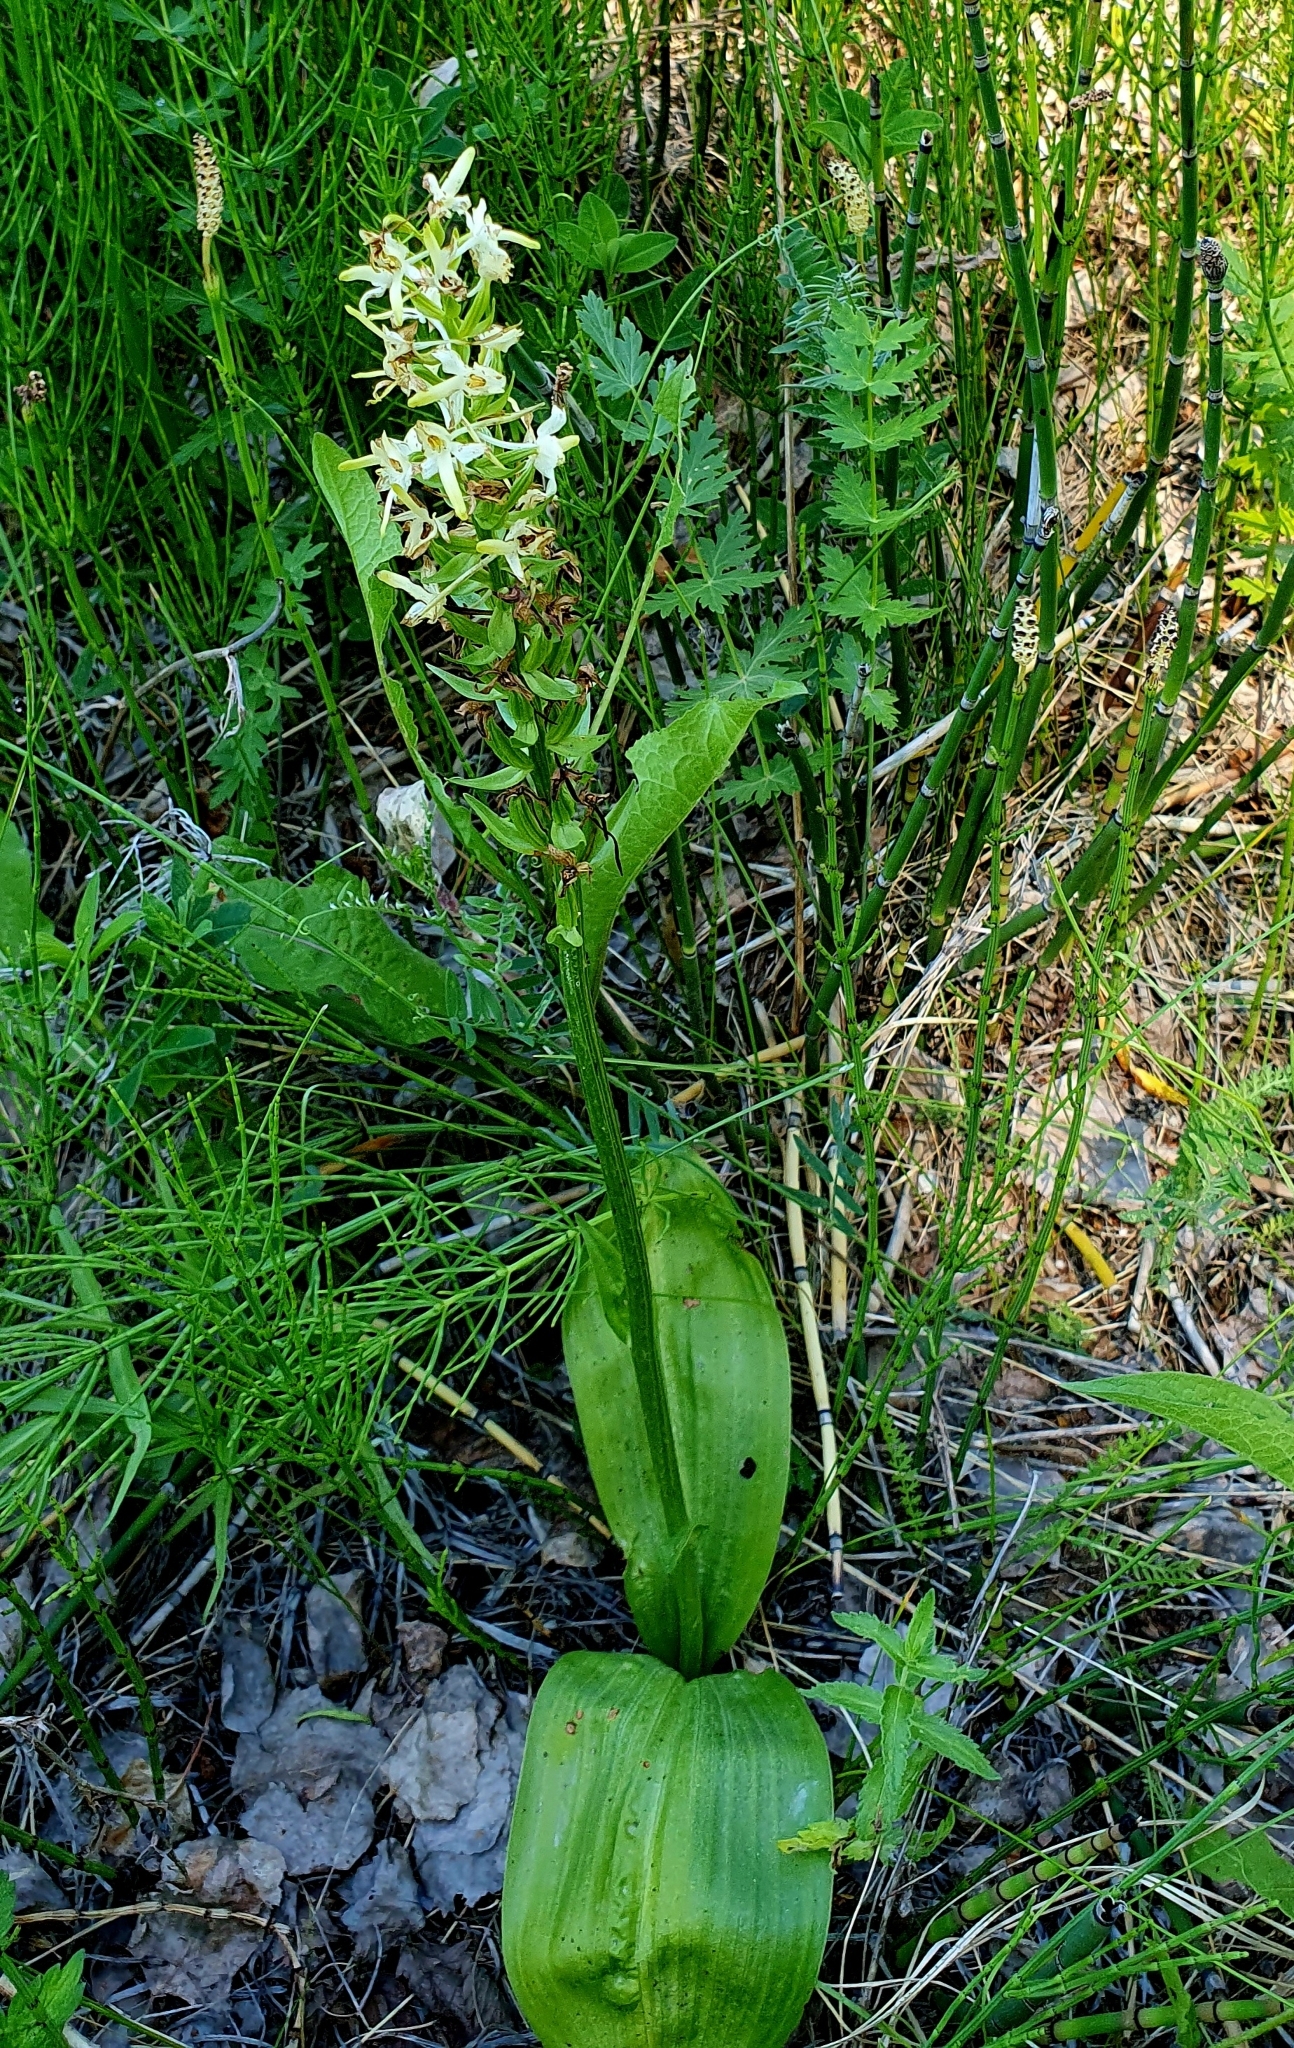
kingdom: Plantae
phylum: Tracheophyta
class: Liliopsida
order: Asparagales
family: Orchidaceae
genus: Platanthera
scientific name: Platanthera bifolia
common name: Lesser butterfly-orchid
